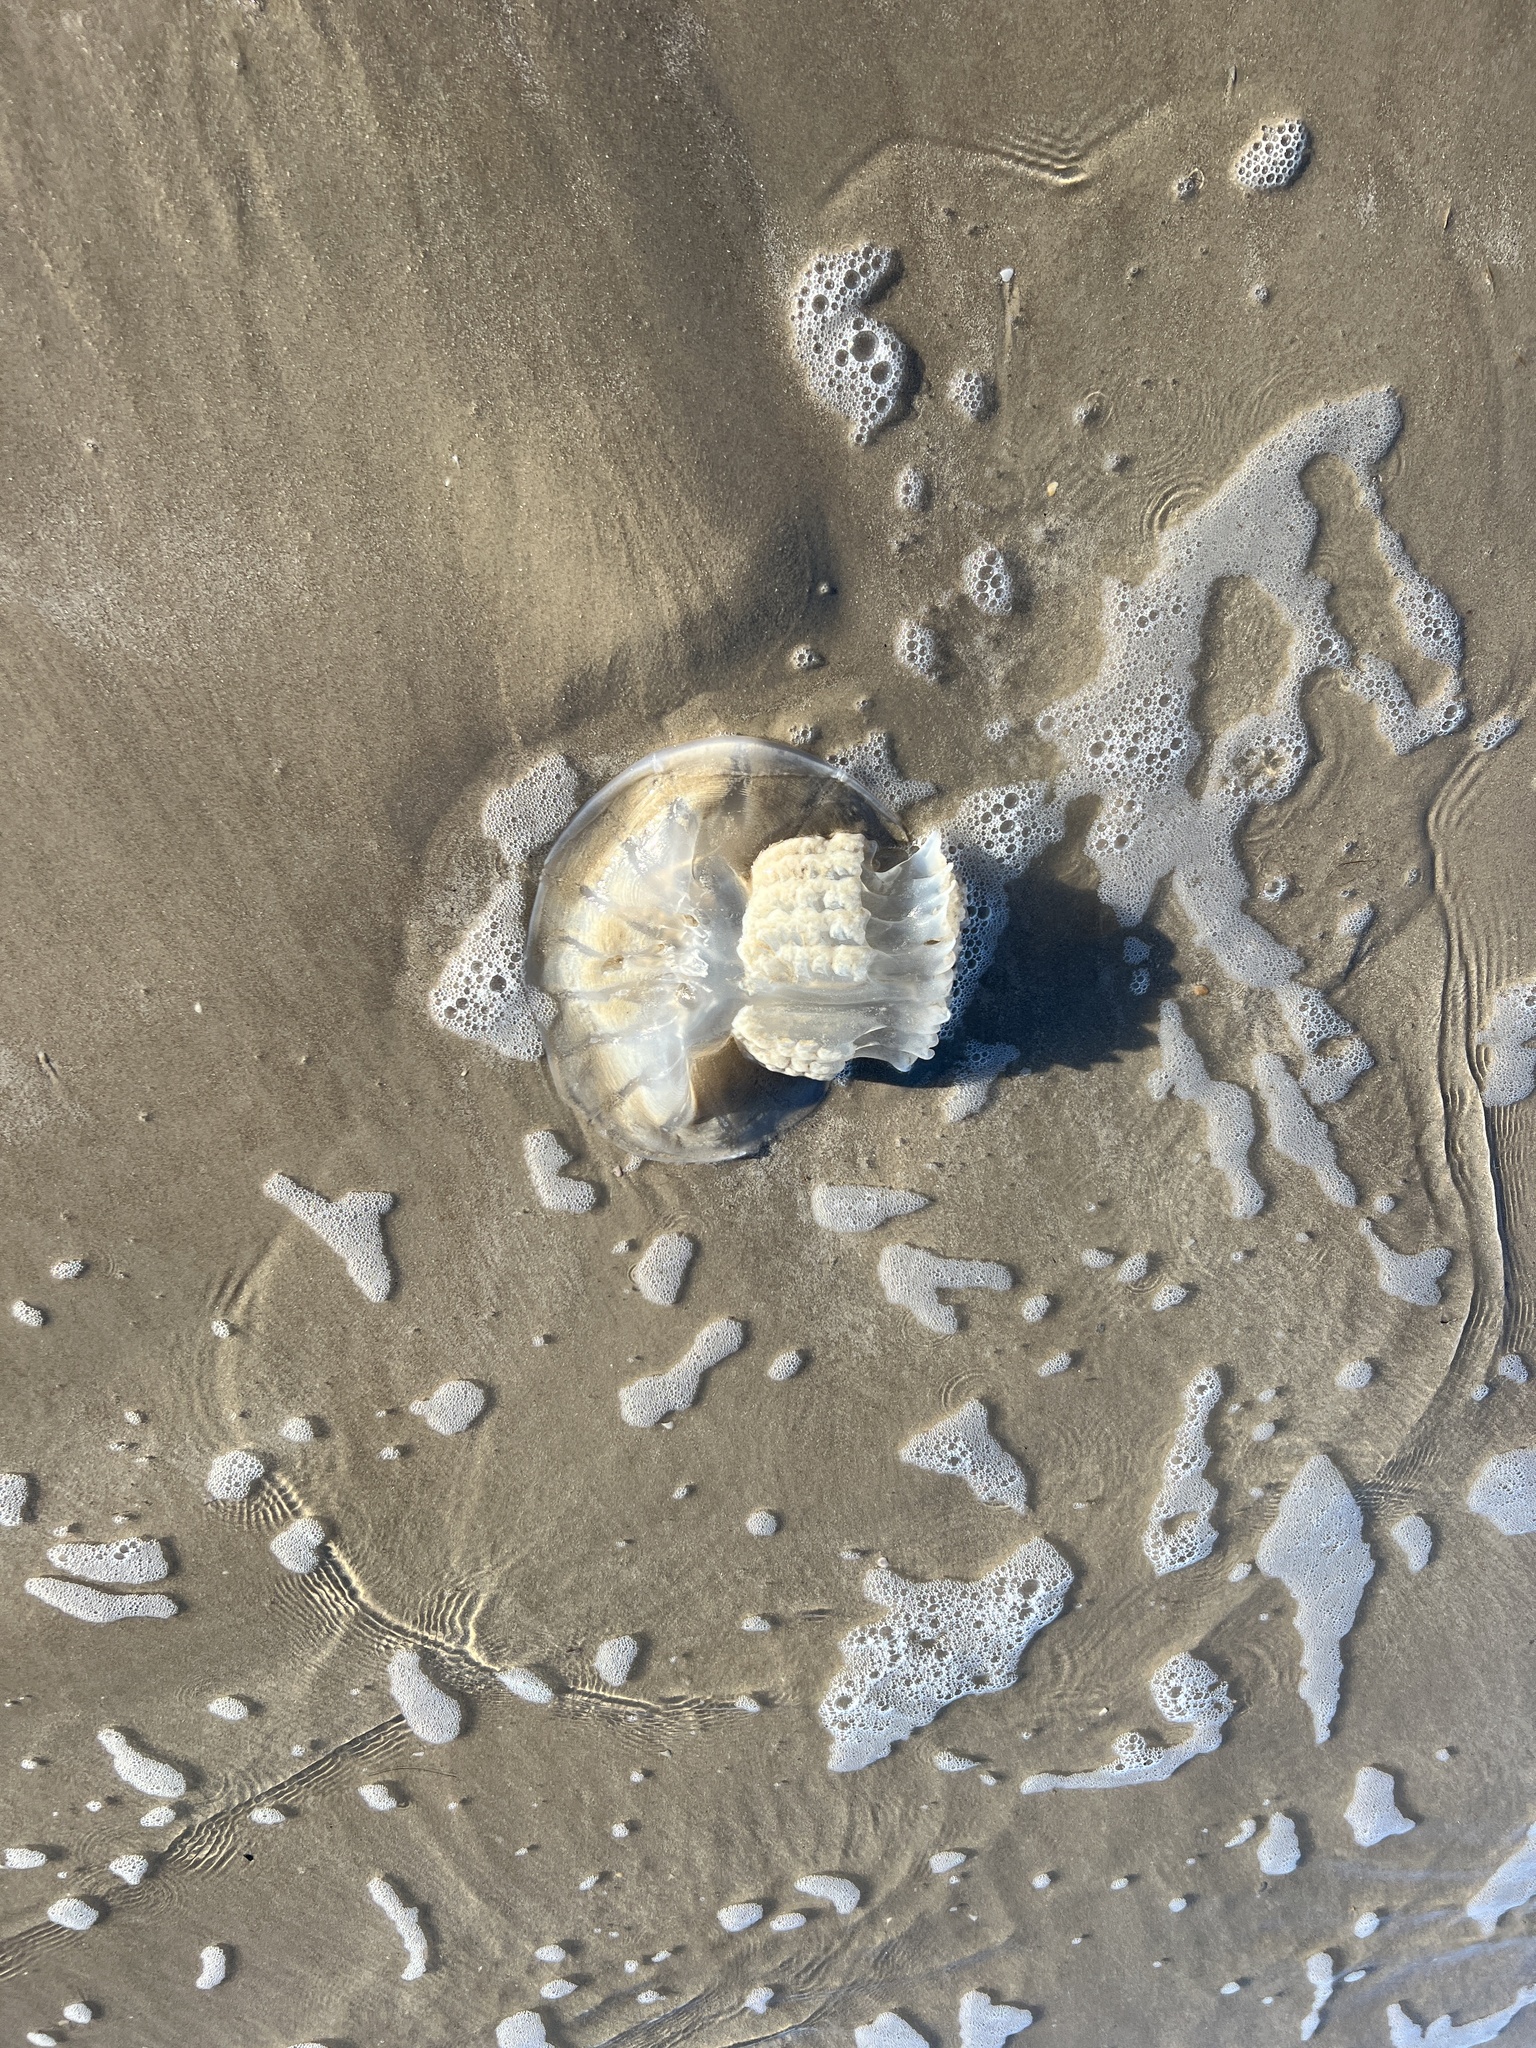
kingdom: Animalia
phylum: Cnidaria
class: Scyphozoa
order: Rhizostomeae
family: Stomolophidae
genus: Stomolophus
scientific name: Stomolophus meleagris
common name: Cabbagehead
